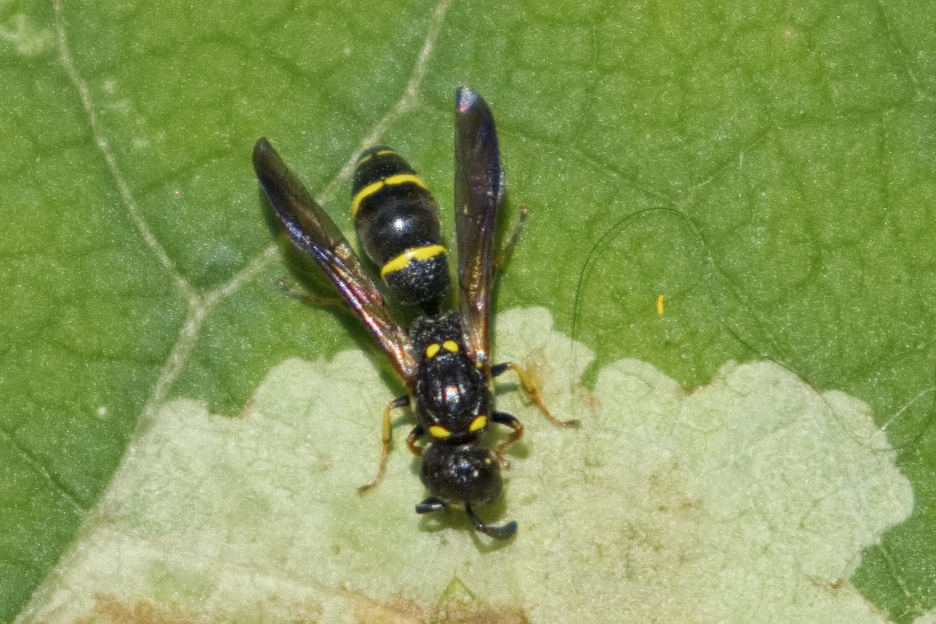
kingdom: Animalia
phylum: Arthropoda
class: Insecta
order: Hymenoptera
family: Eumenidae
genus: Symmorphus
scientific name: Symmorphus canadensis
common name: Canadian potter wasp
